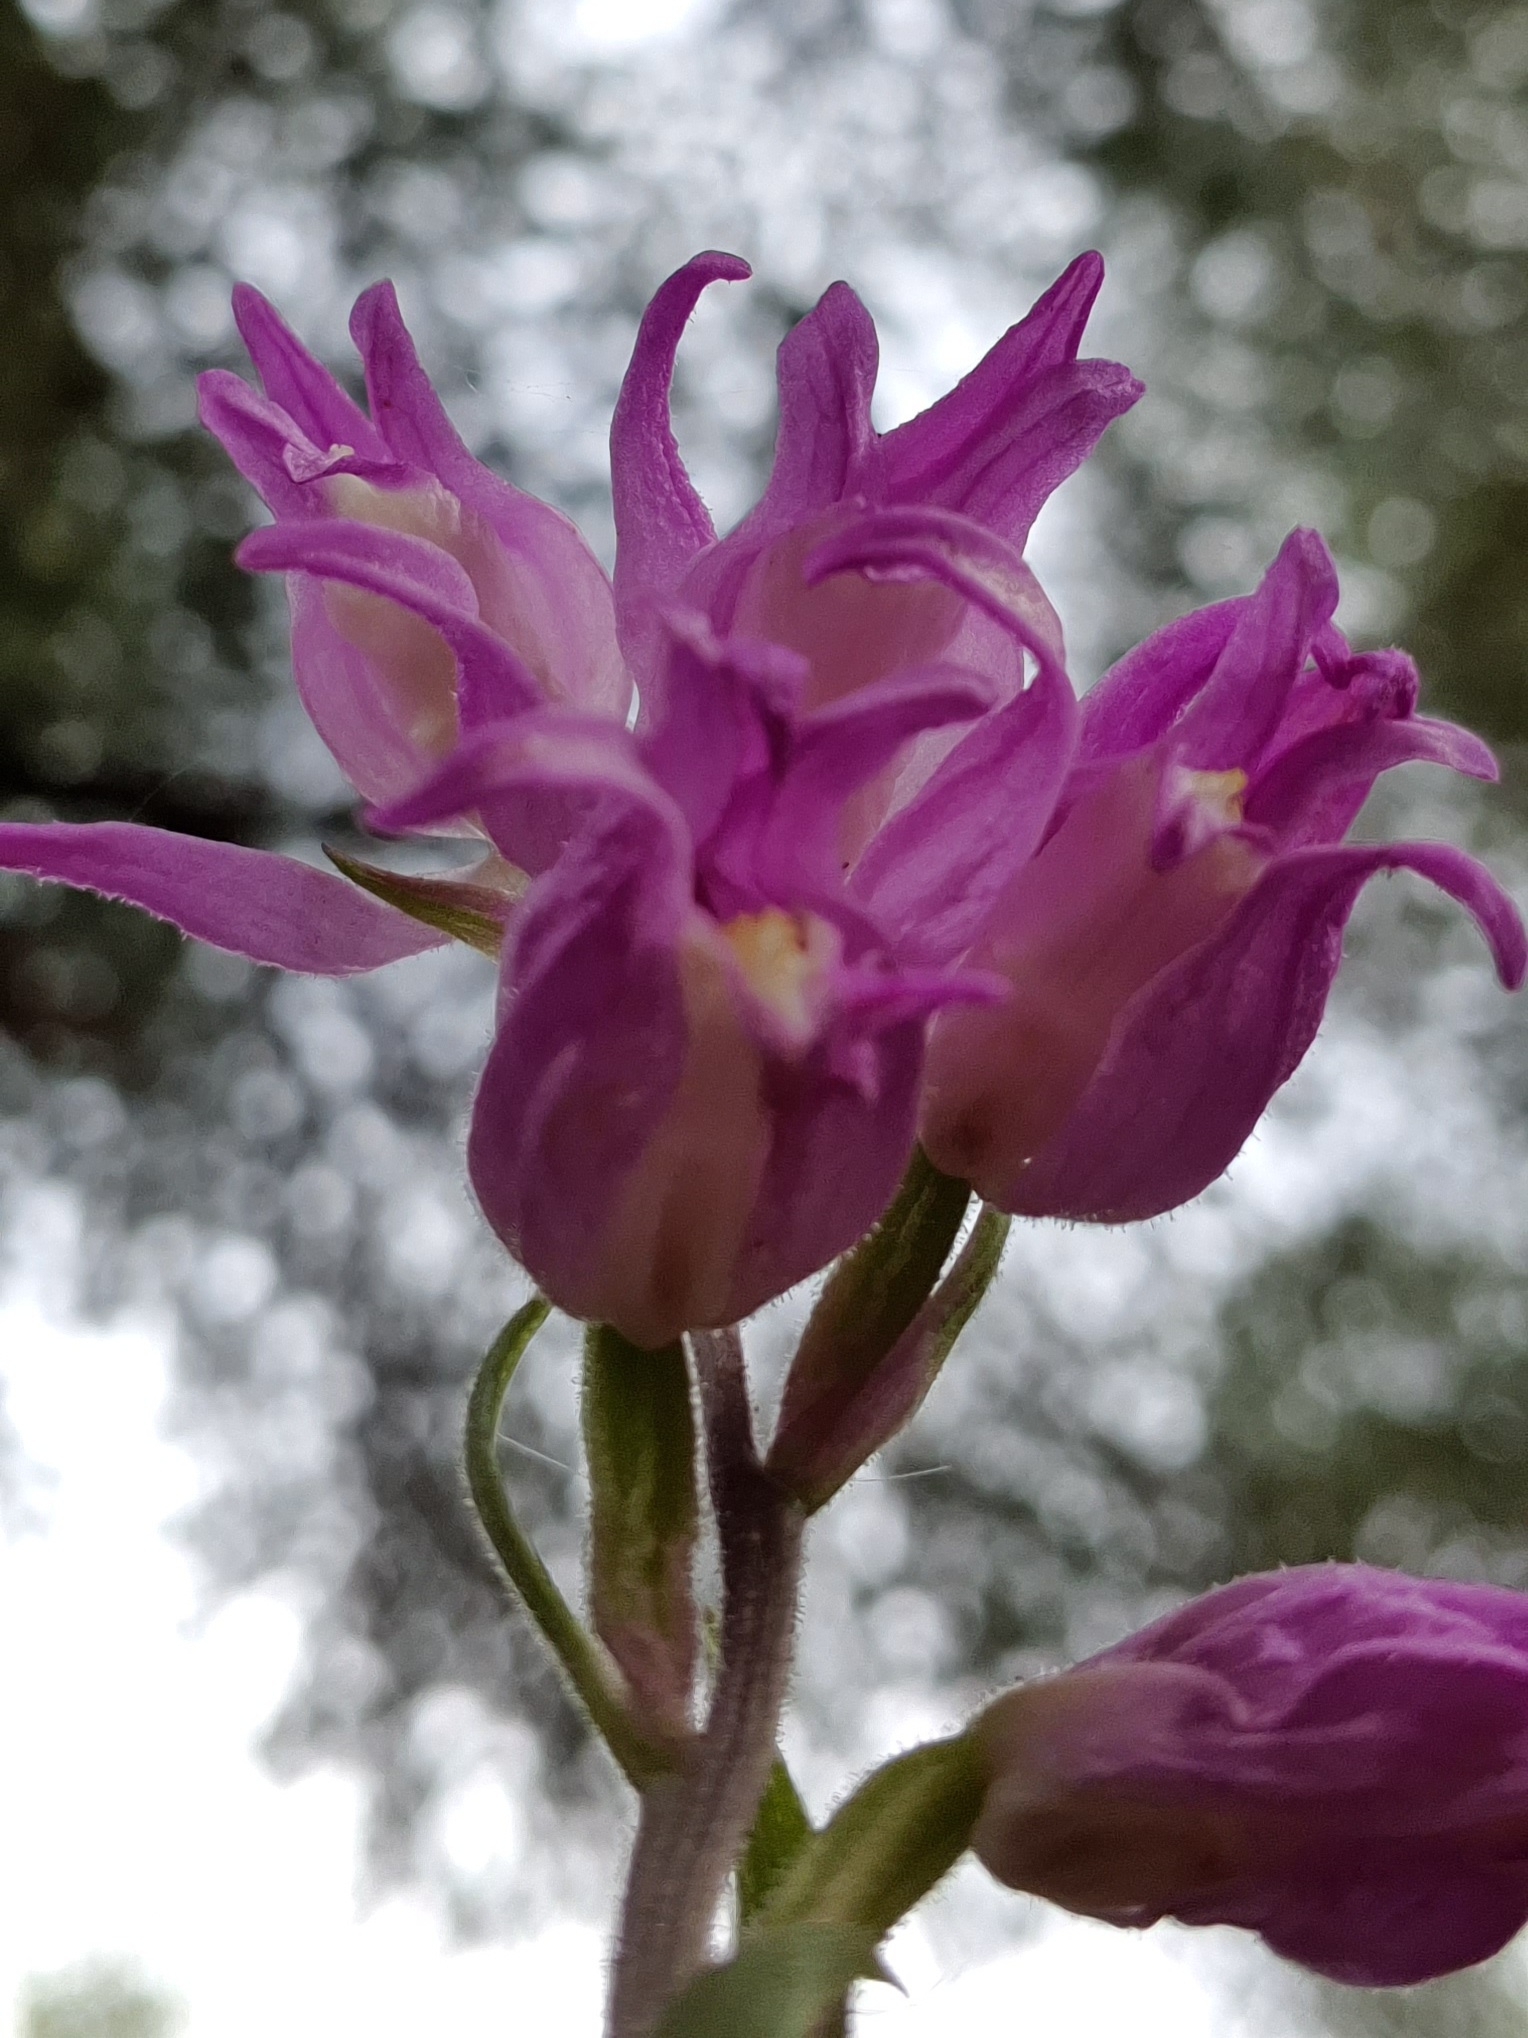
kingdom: Plantae
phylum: Tracheophyta
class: Liliopsida
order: Asparagales
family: Orchidaceae
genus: Cephalanthera
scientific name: Cephalanthera rubra
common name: Red helleborine
